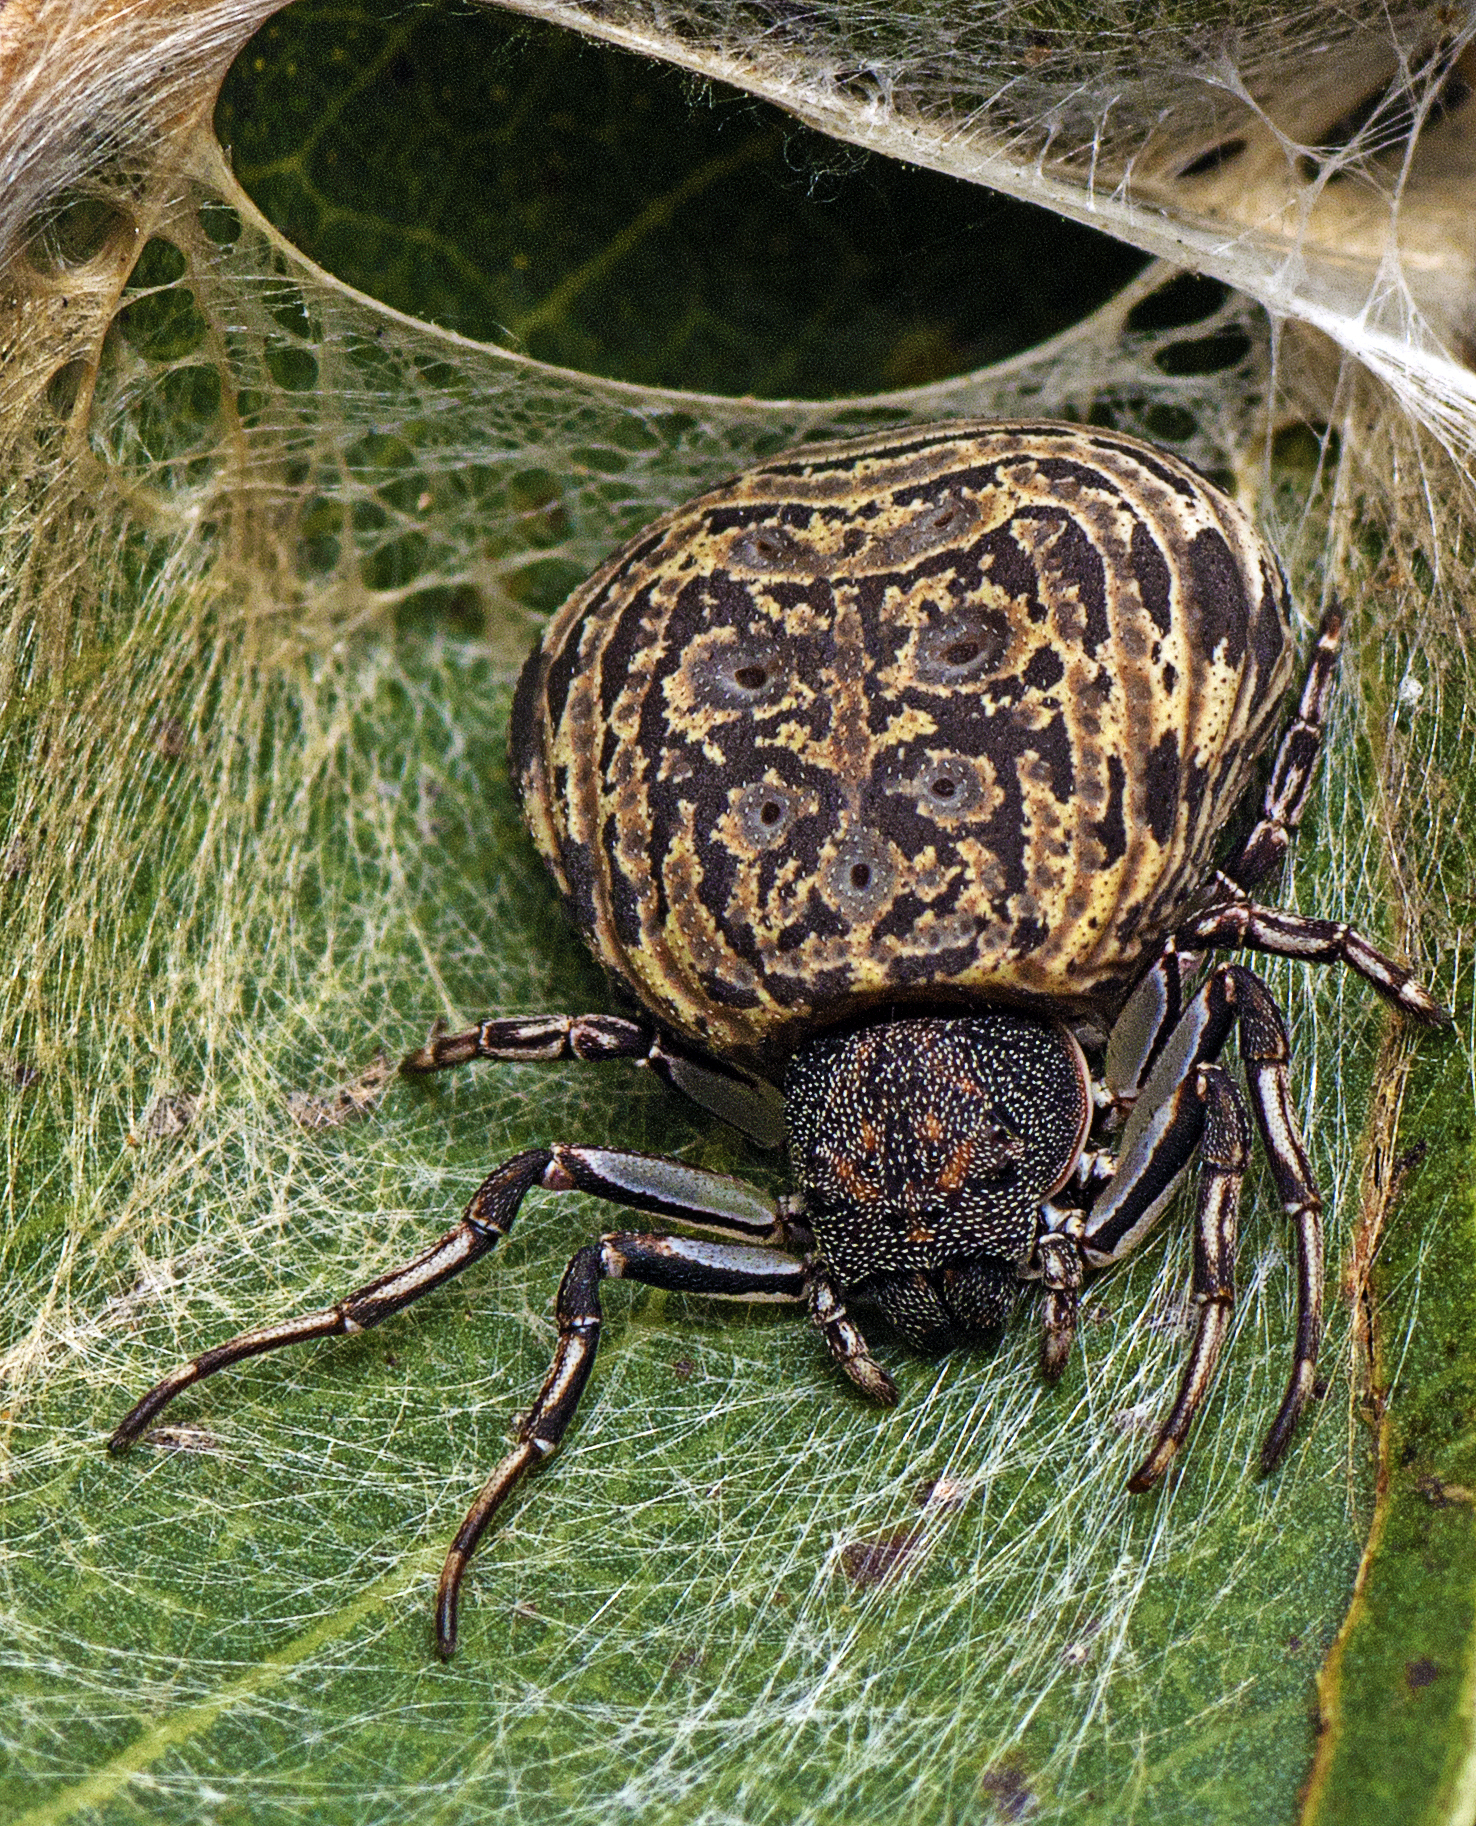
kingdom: Animalia
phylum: Arthropoda
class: Arachnida
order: Araneae
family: Thomisidae
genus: Cymbacha
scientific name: Cymbacha ocellata
